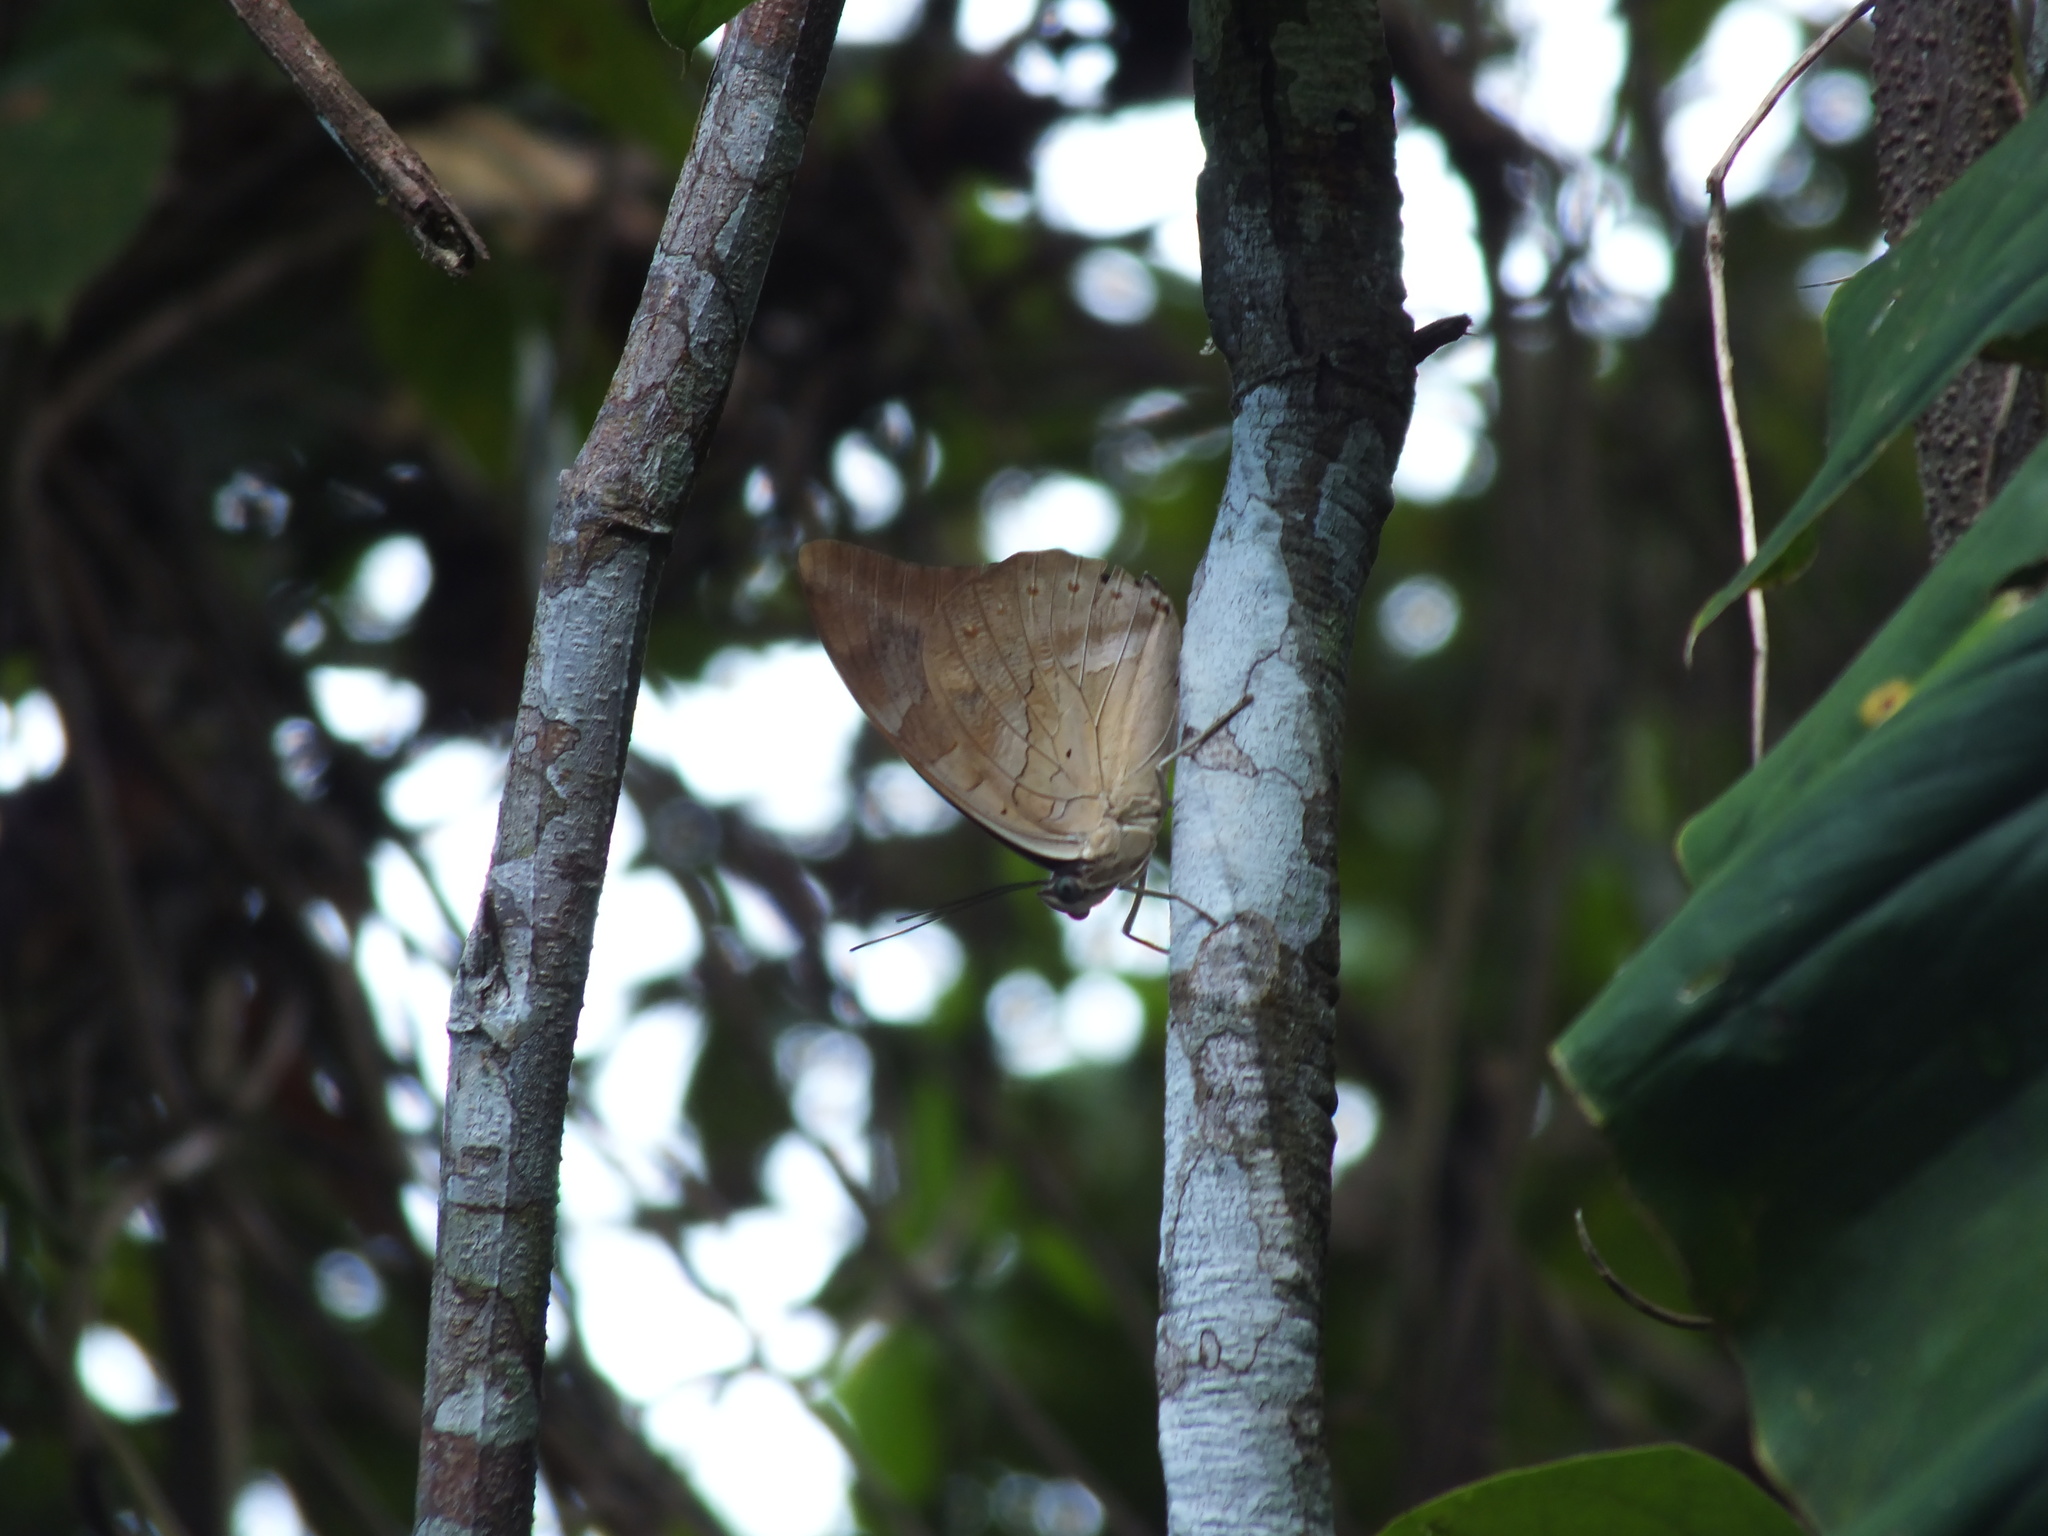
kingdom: Animalia
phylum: Arthropoda
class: Insecta
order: Lepidoptera
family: Nymphalidae
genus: Prepona
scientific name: Prepona demophon
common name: One-spotted prepona
